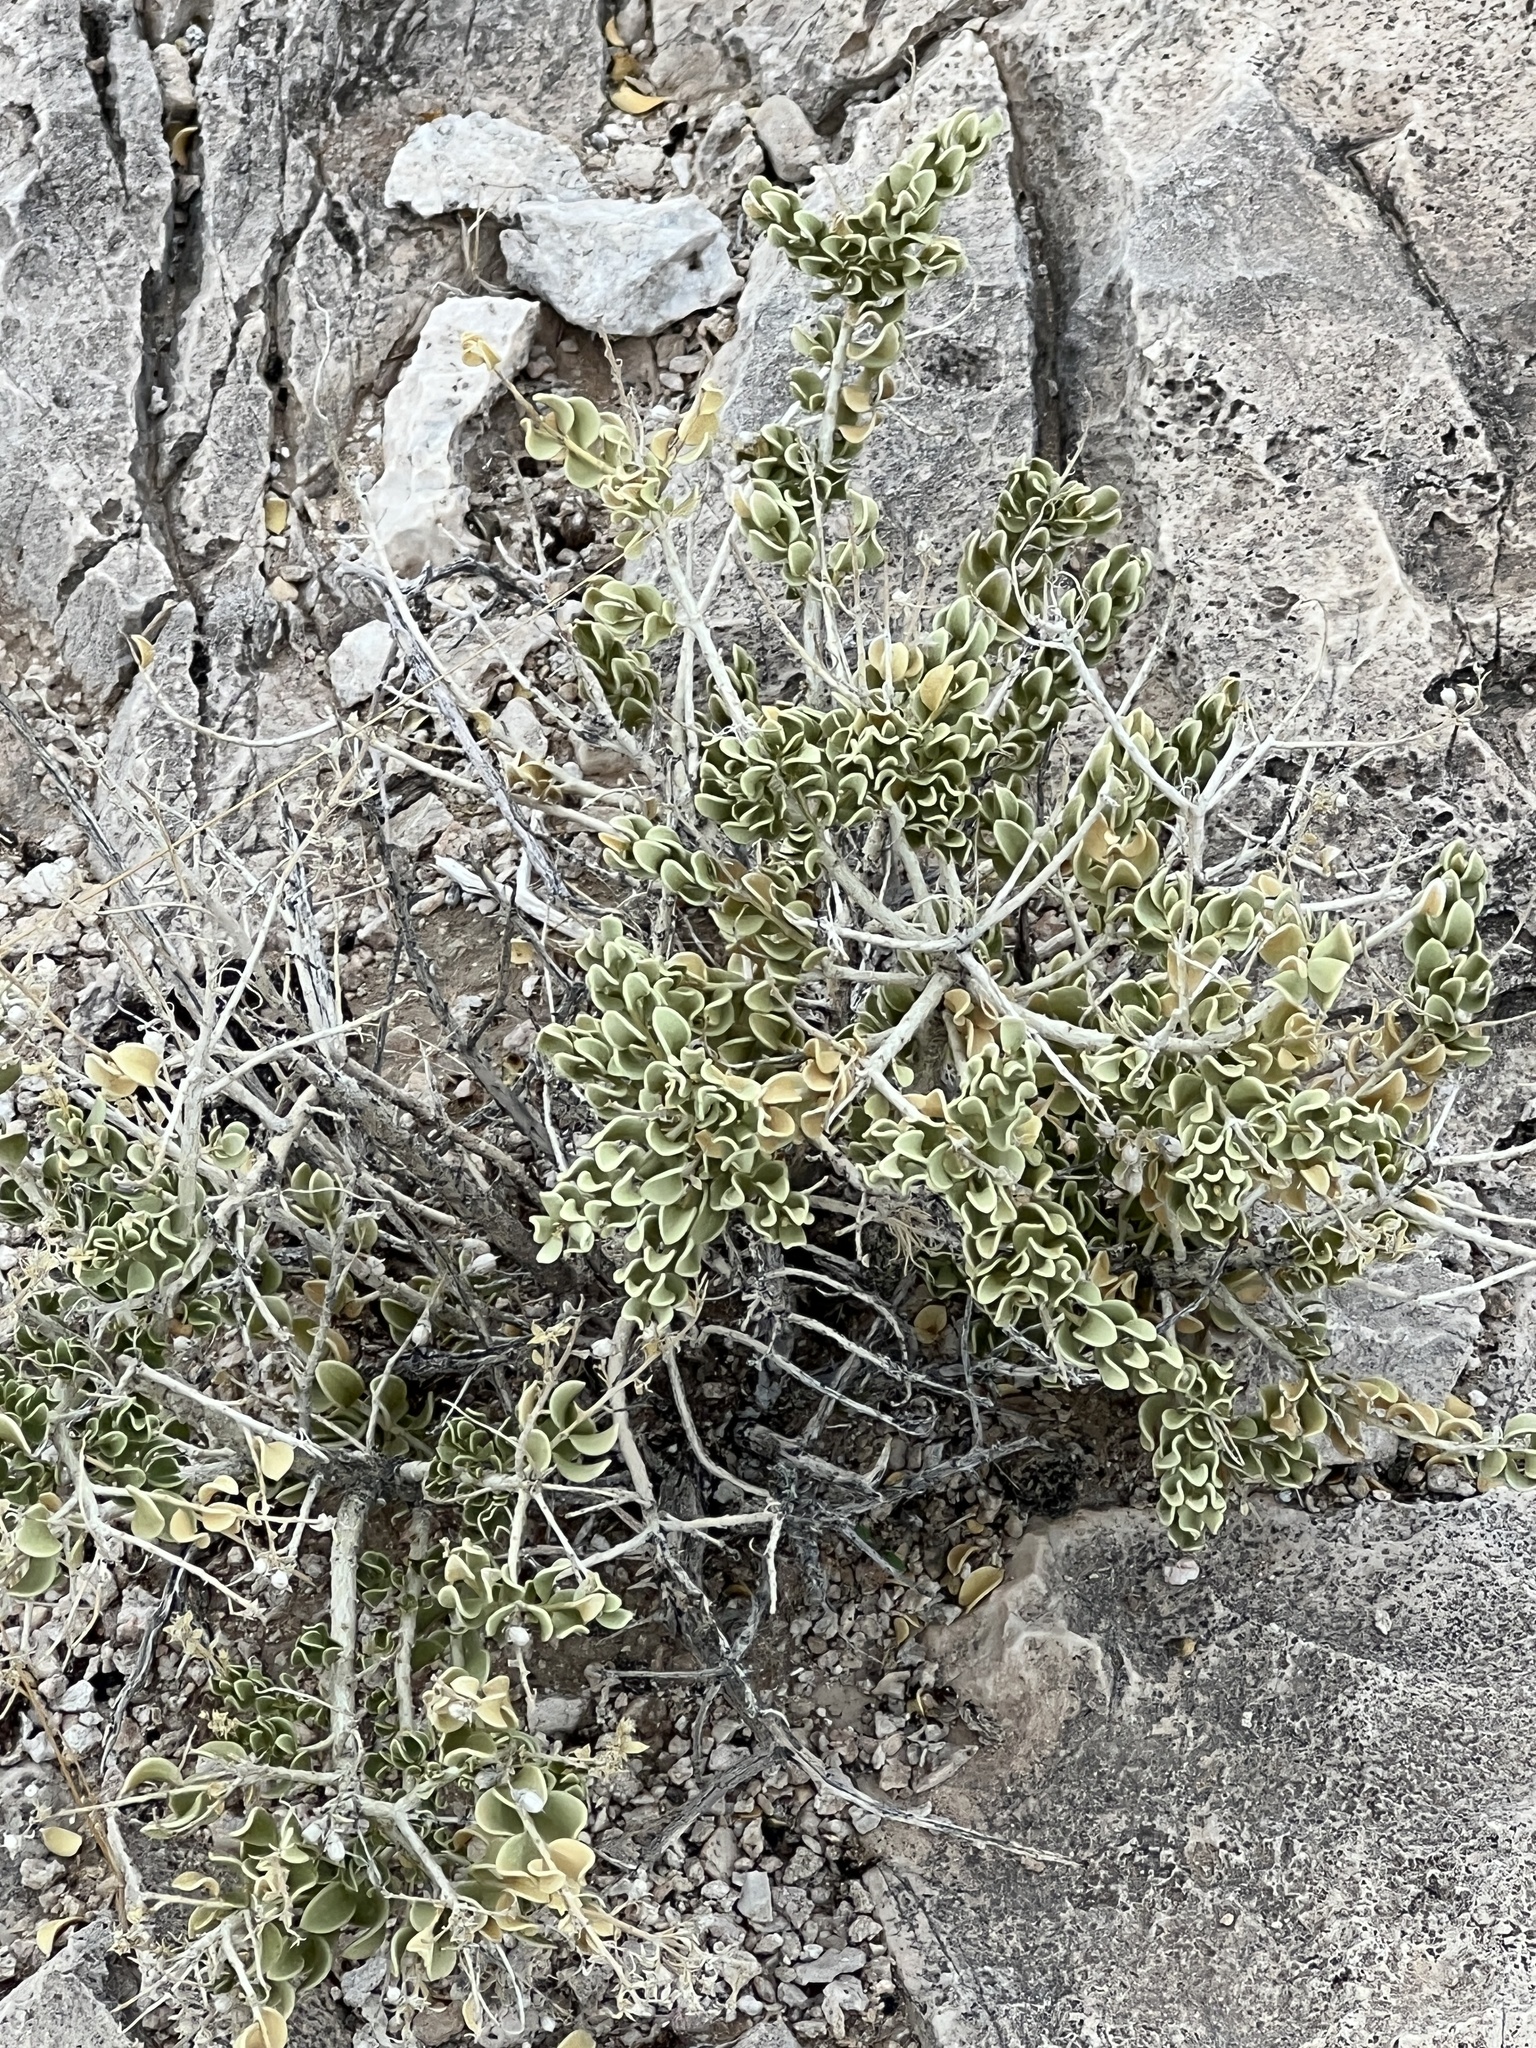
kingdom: Plantae
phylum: Tracheophyta
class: Magnoliopsida
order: Celastrales
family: Celastraceae
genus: Mortonia
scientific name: Mortonia utahensis
